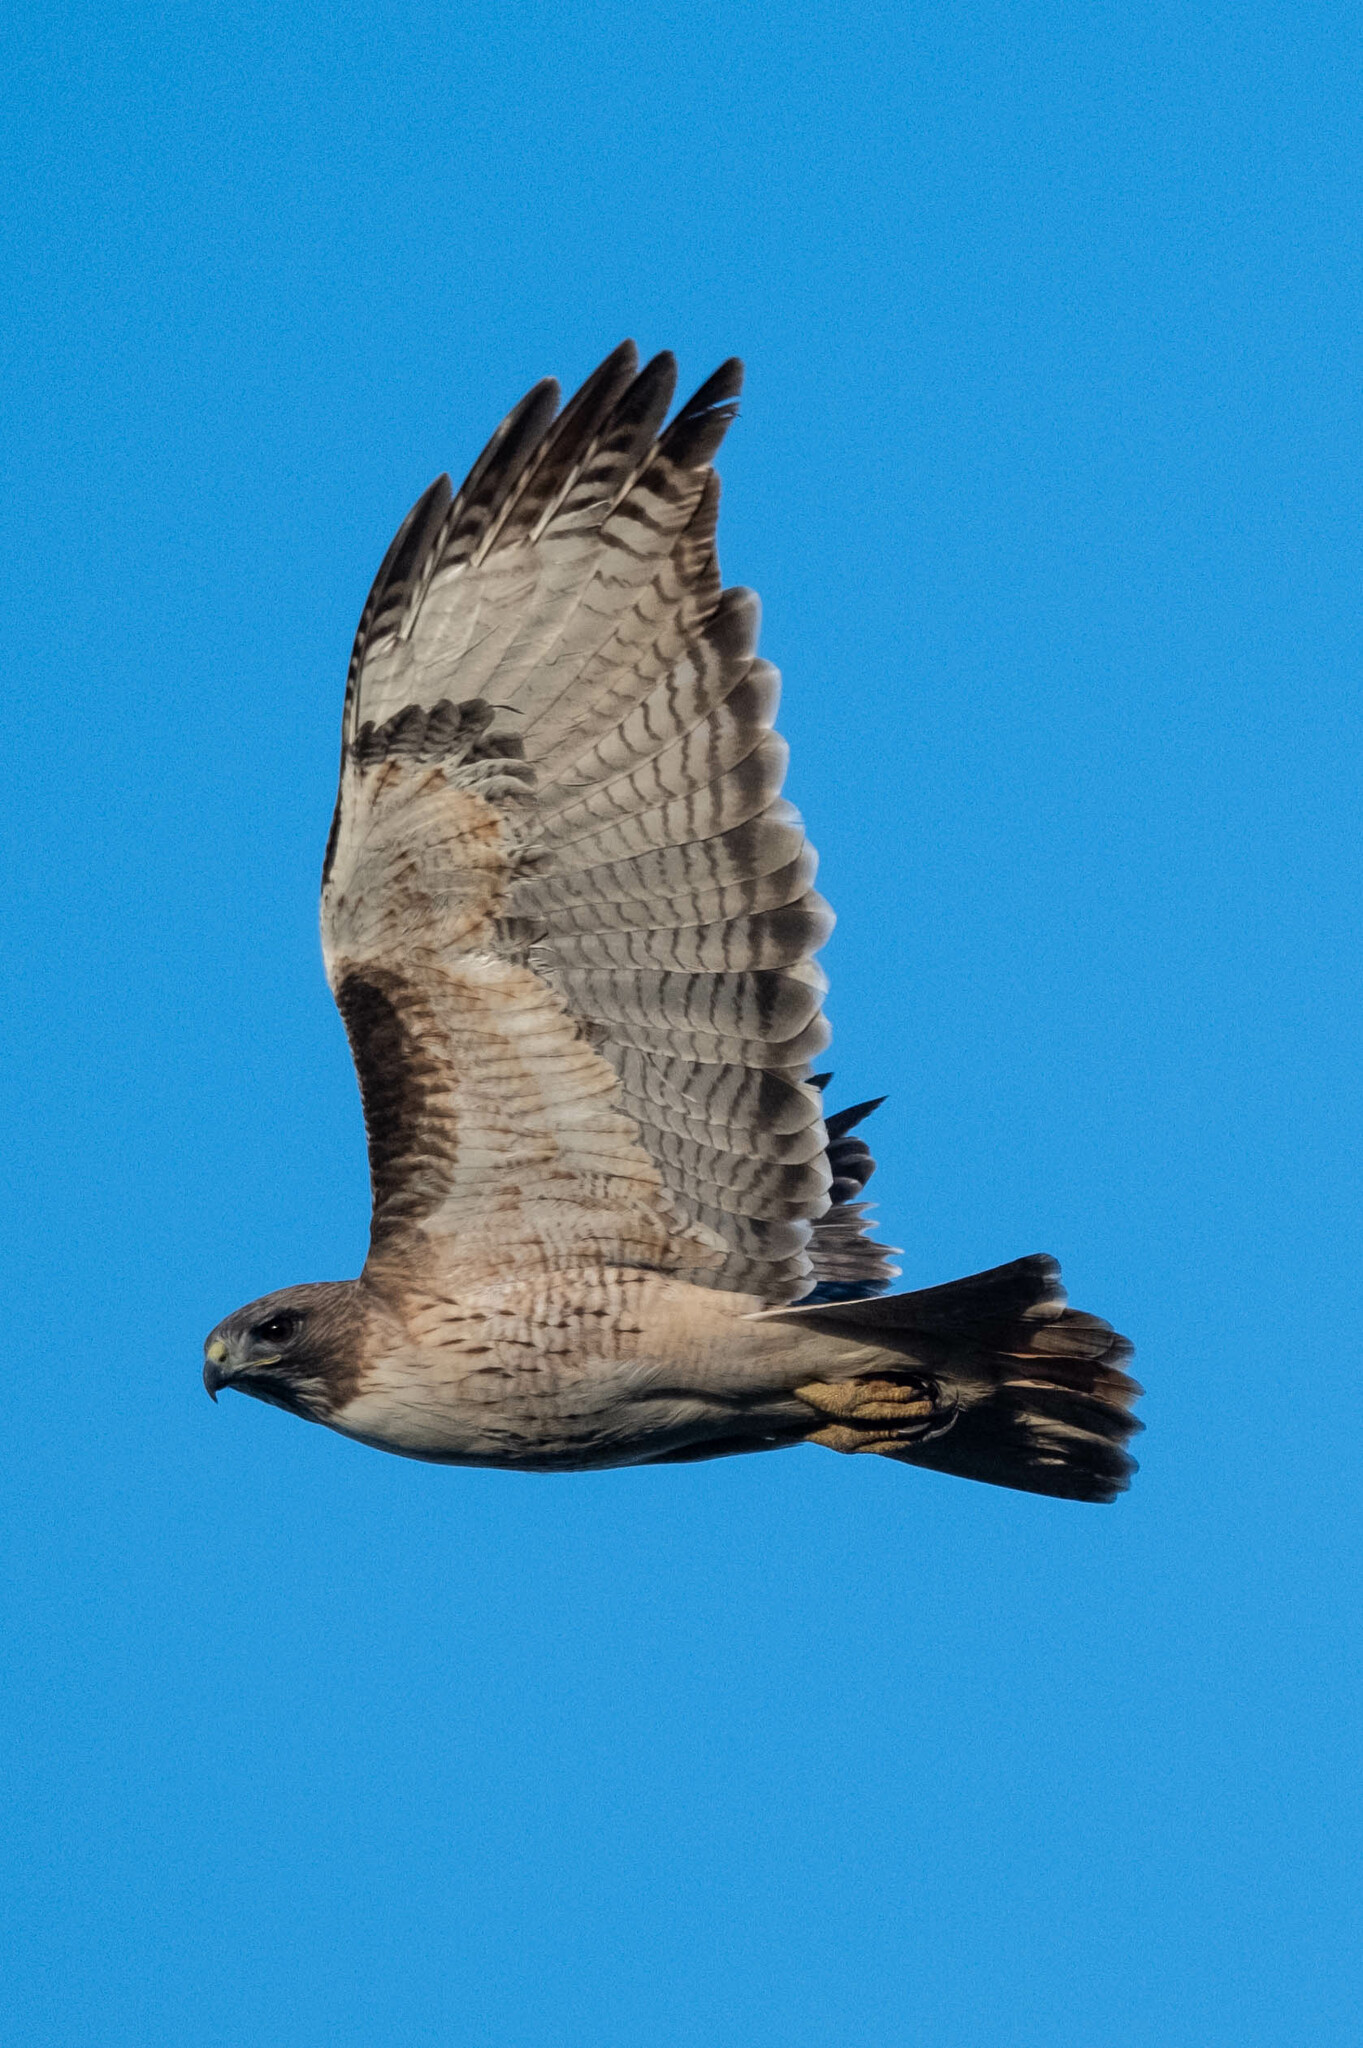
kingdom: Animalia
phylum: Chordata
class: Aves
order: Accipitriformes
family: Accipitridae
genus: Buteo
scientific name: Buteo jamaicensis
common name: Red-tailed hawk
